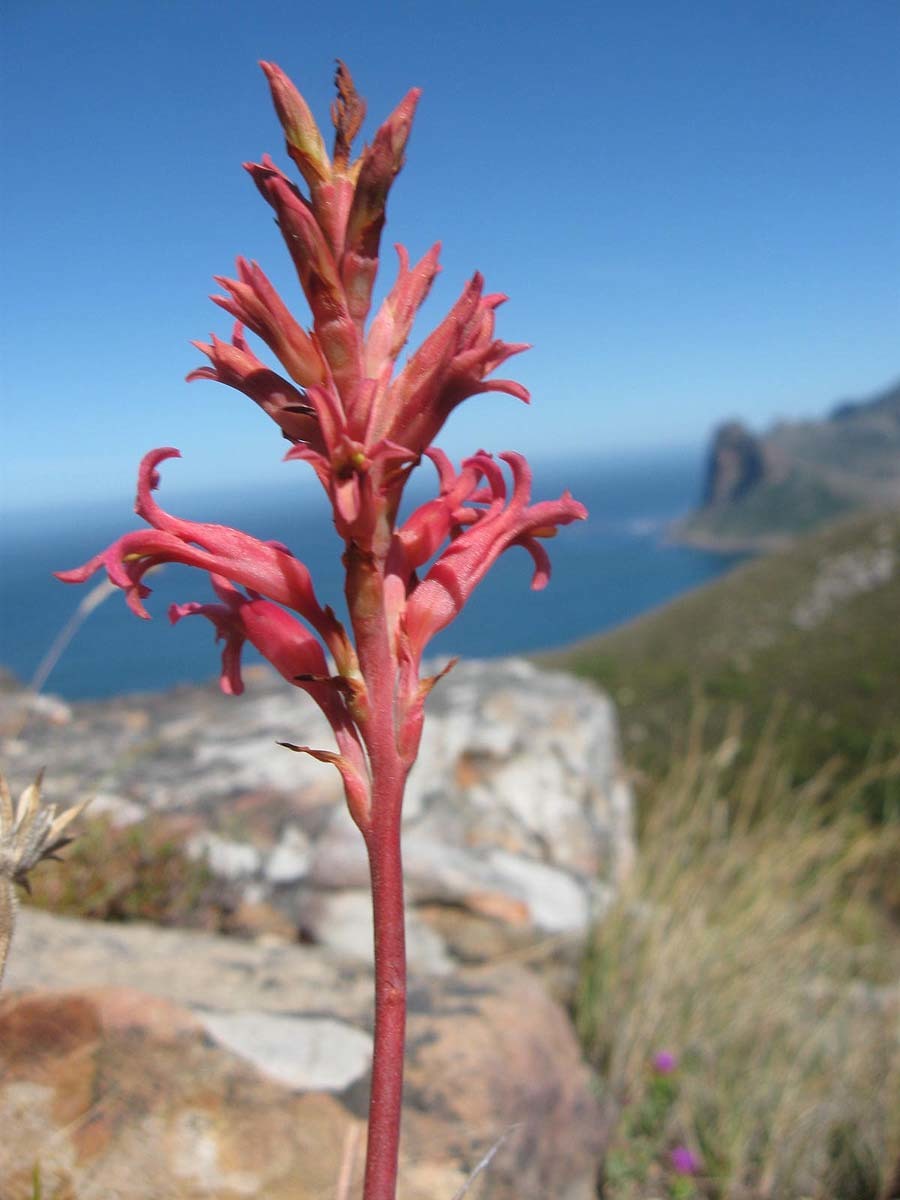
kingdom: Plantae
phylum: Tracheophyta
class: Liliopsida
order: Asparagales
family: Iridaceae
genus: Tritoniopsis
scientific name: Tritoniopsis antholyza
